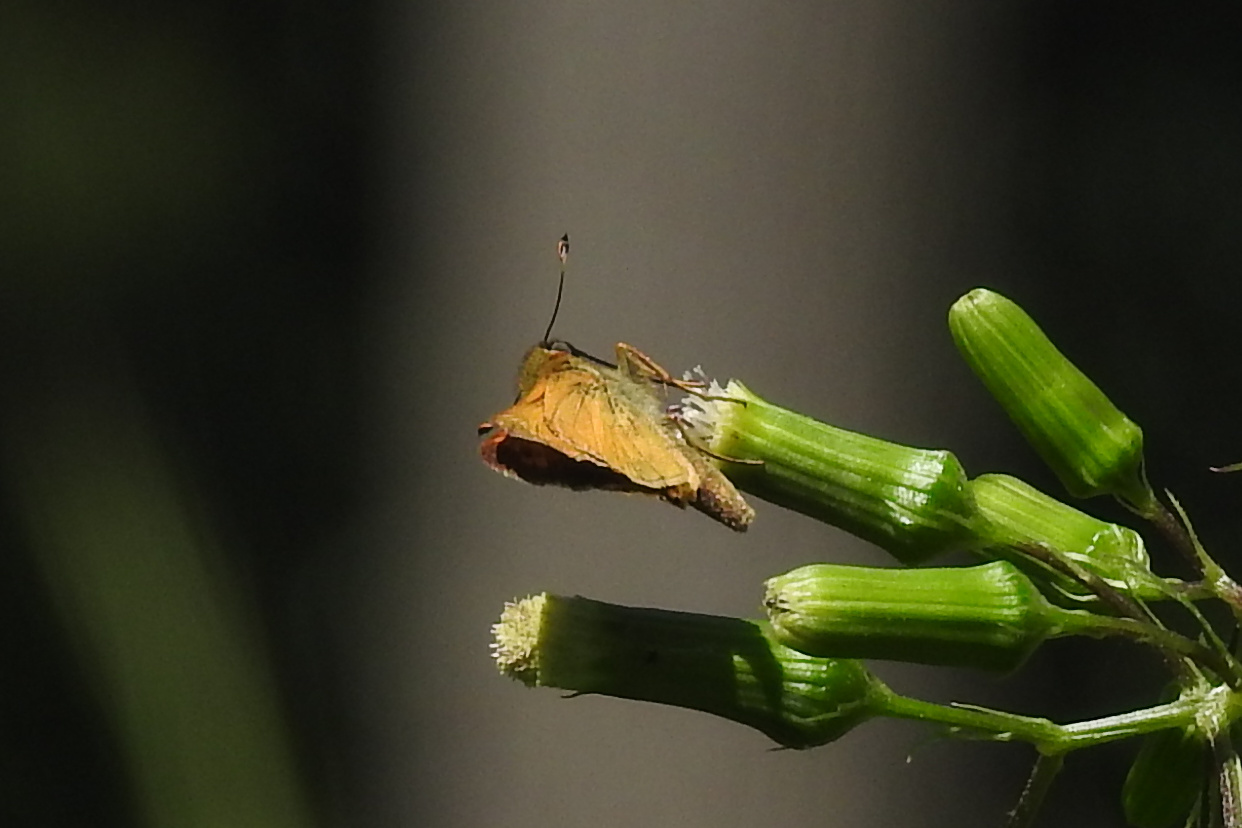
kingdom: Animalia
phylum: Arthropoda
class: Insecta
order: Lepidoptera
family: Hesperiidae
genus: Atalopedes
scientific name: Atalopedes
